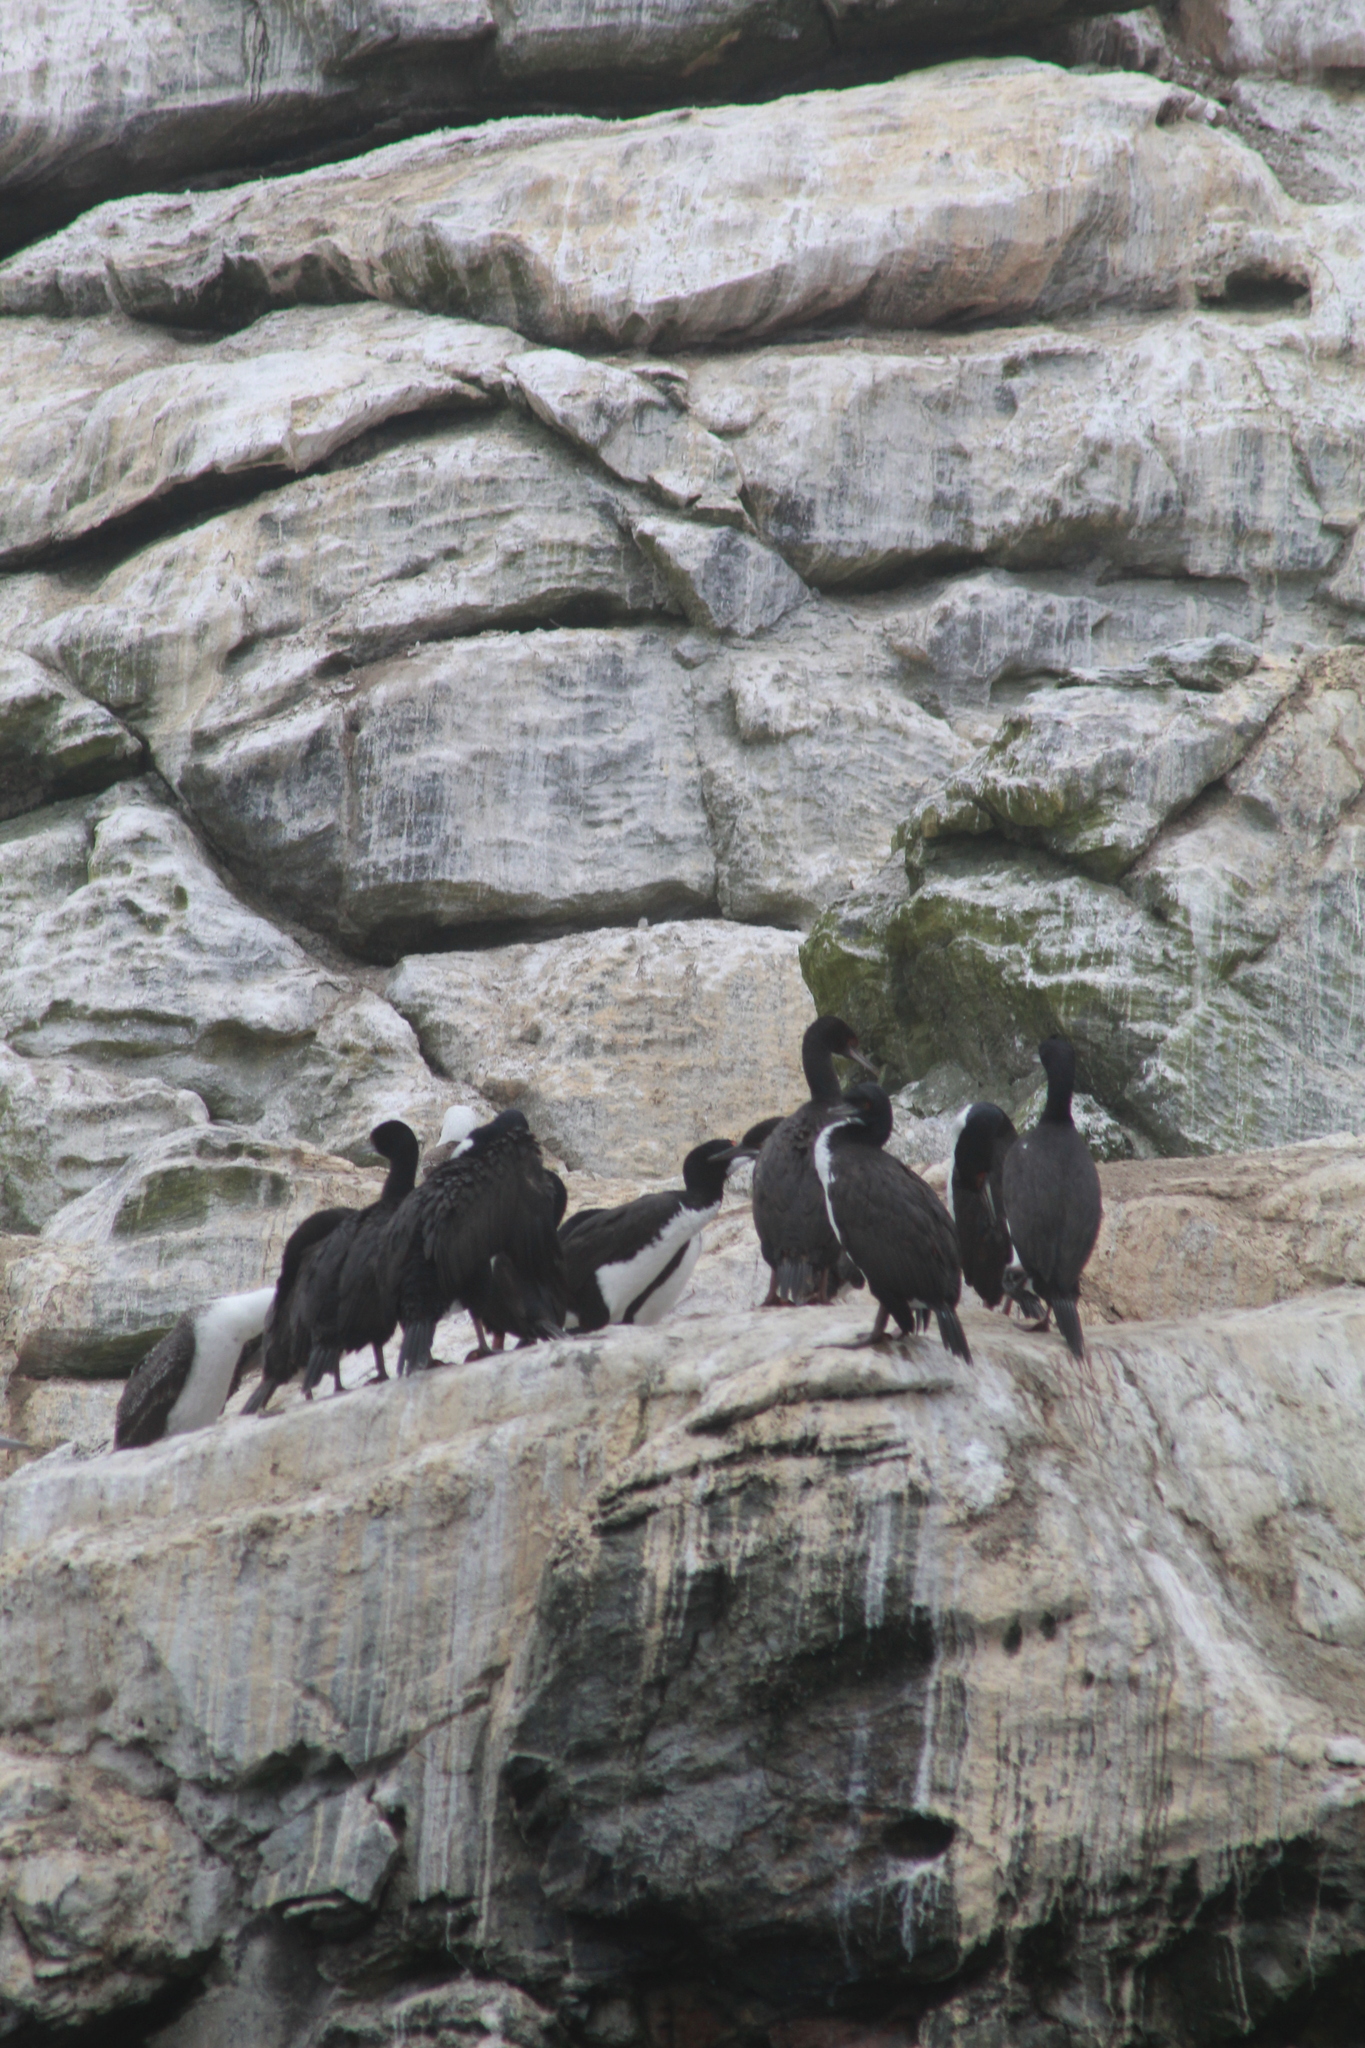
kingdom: Animalia
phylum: Chordata
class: Aves
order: Suliformes
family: Phalacrocoracidae
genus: Leucocarbo
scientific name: Leucocarbo bougainvillii
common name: Guanay cormorant
